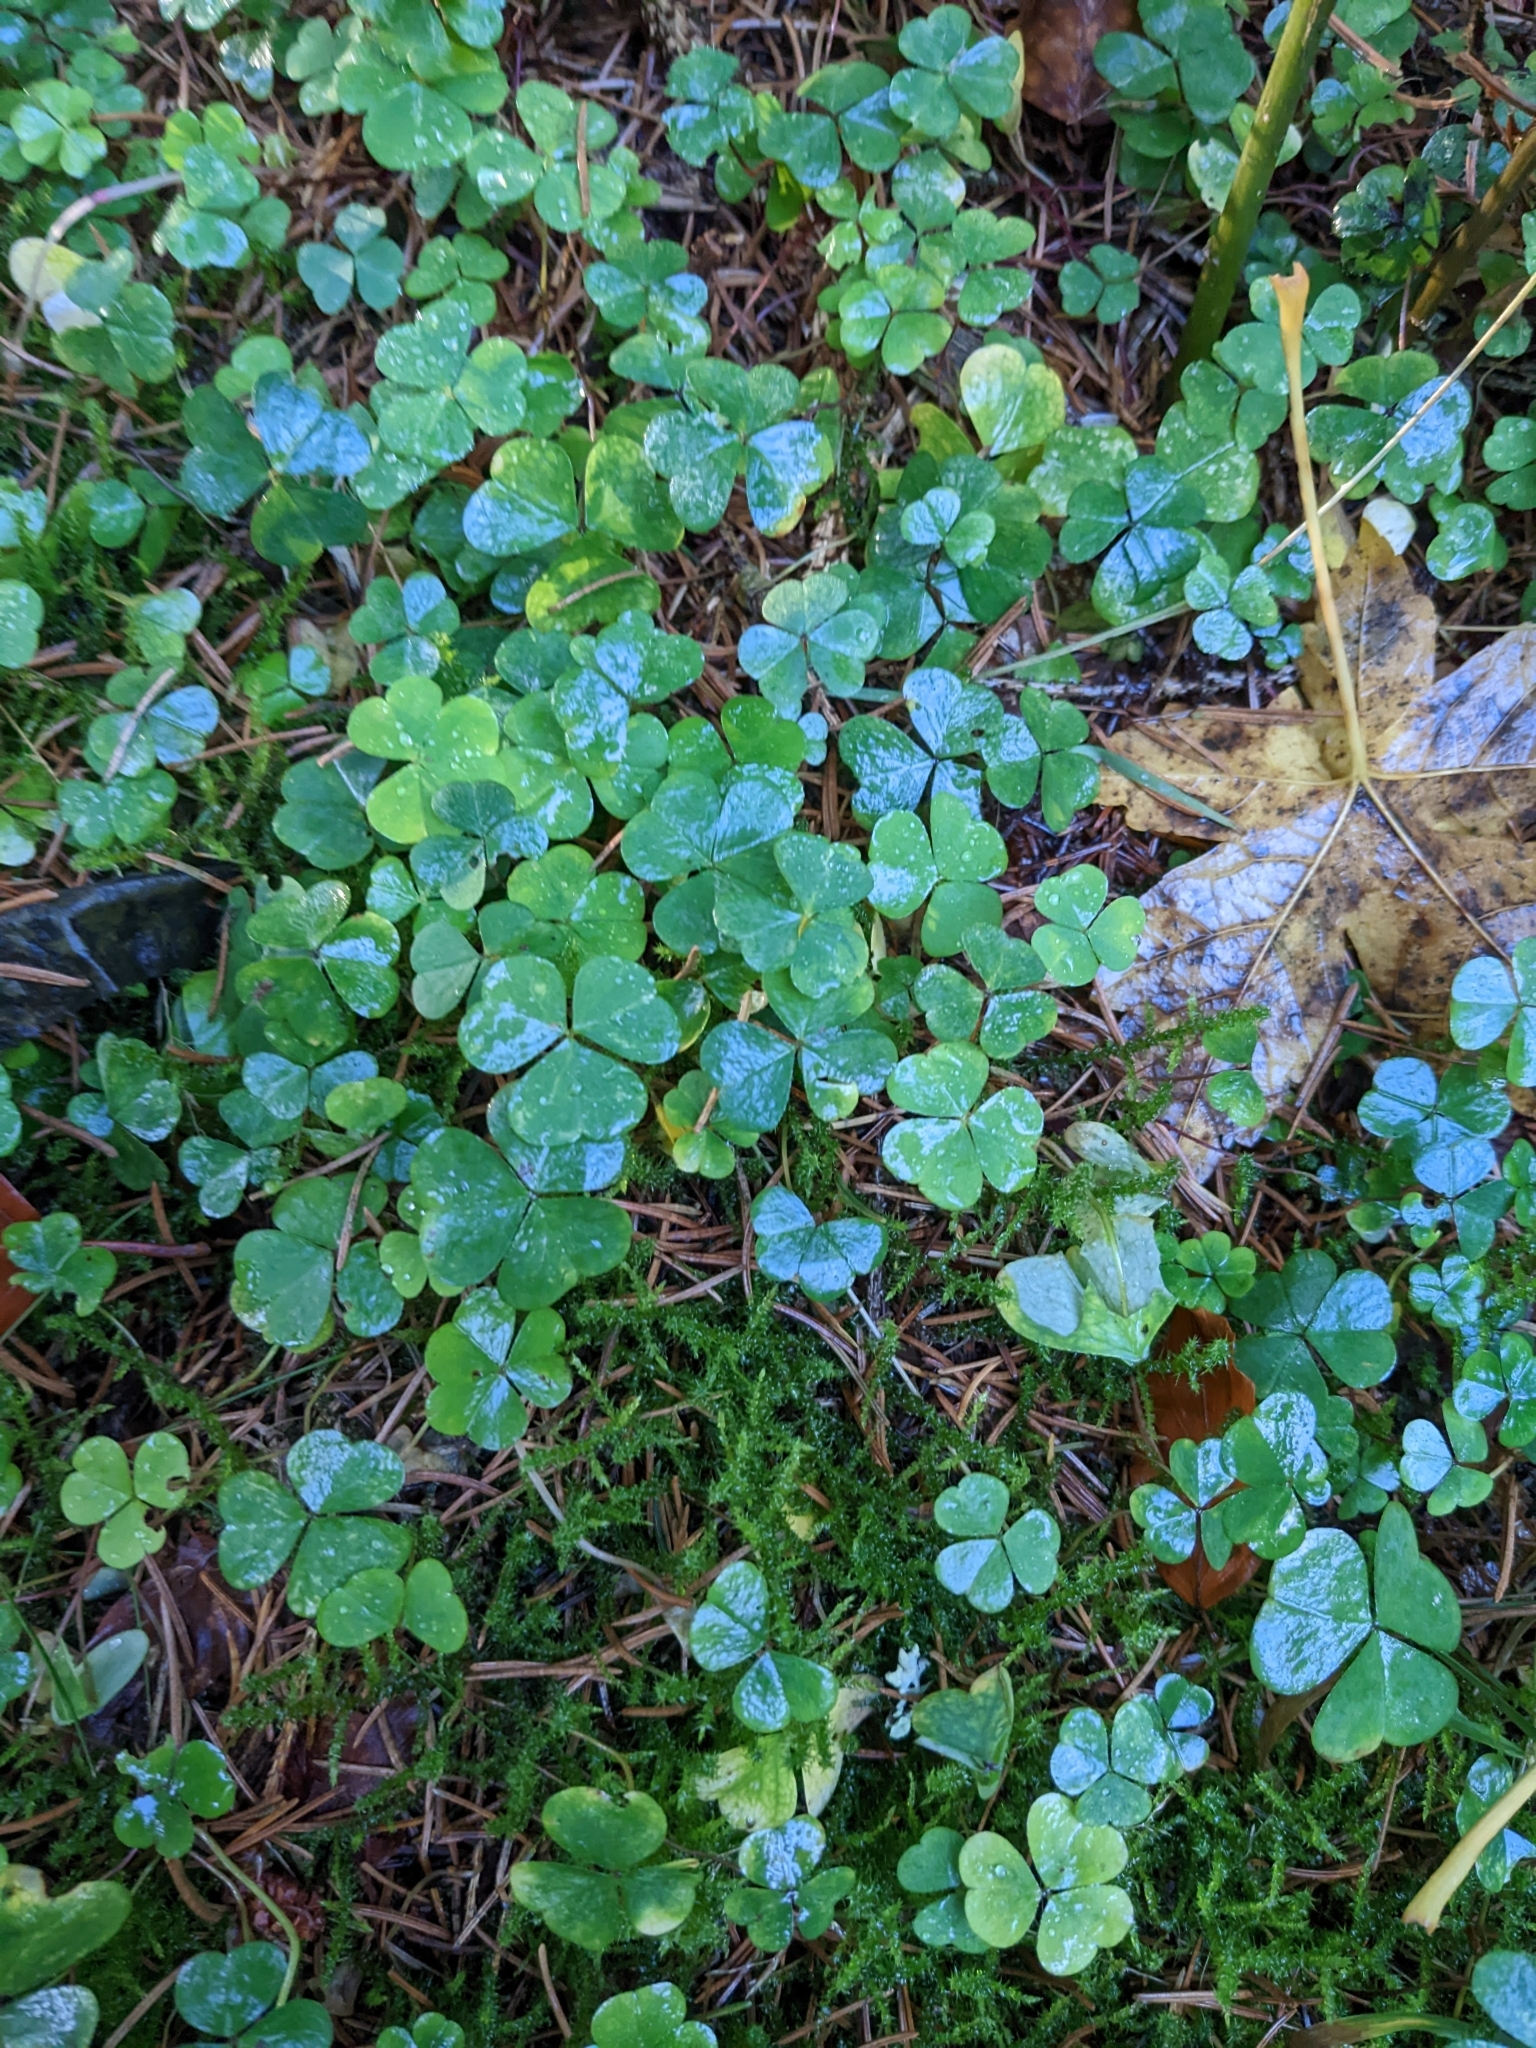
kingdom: Plantae
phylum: Tracheophyta
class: Magnoliopsida
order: Oxalidales
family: Oxalidaceae
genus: Oxalis
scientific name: Oxalis acetosella
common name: Wood-sorrel
